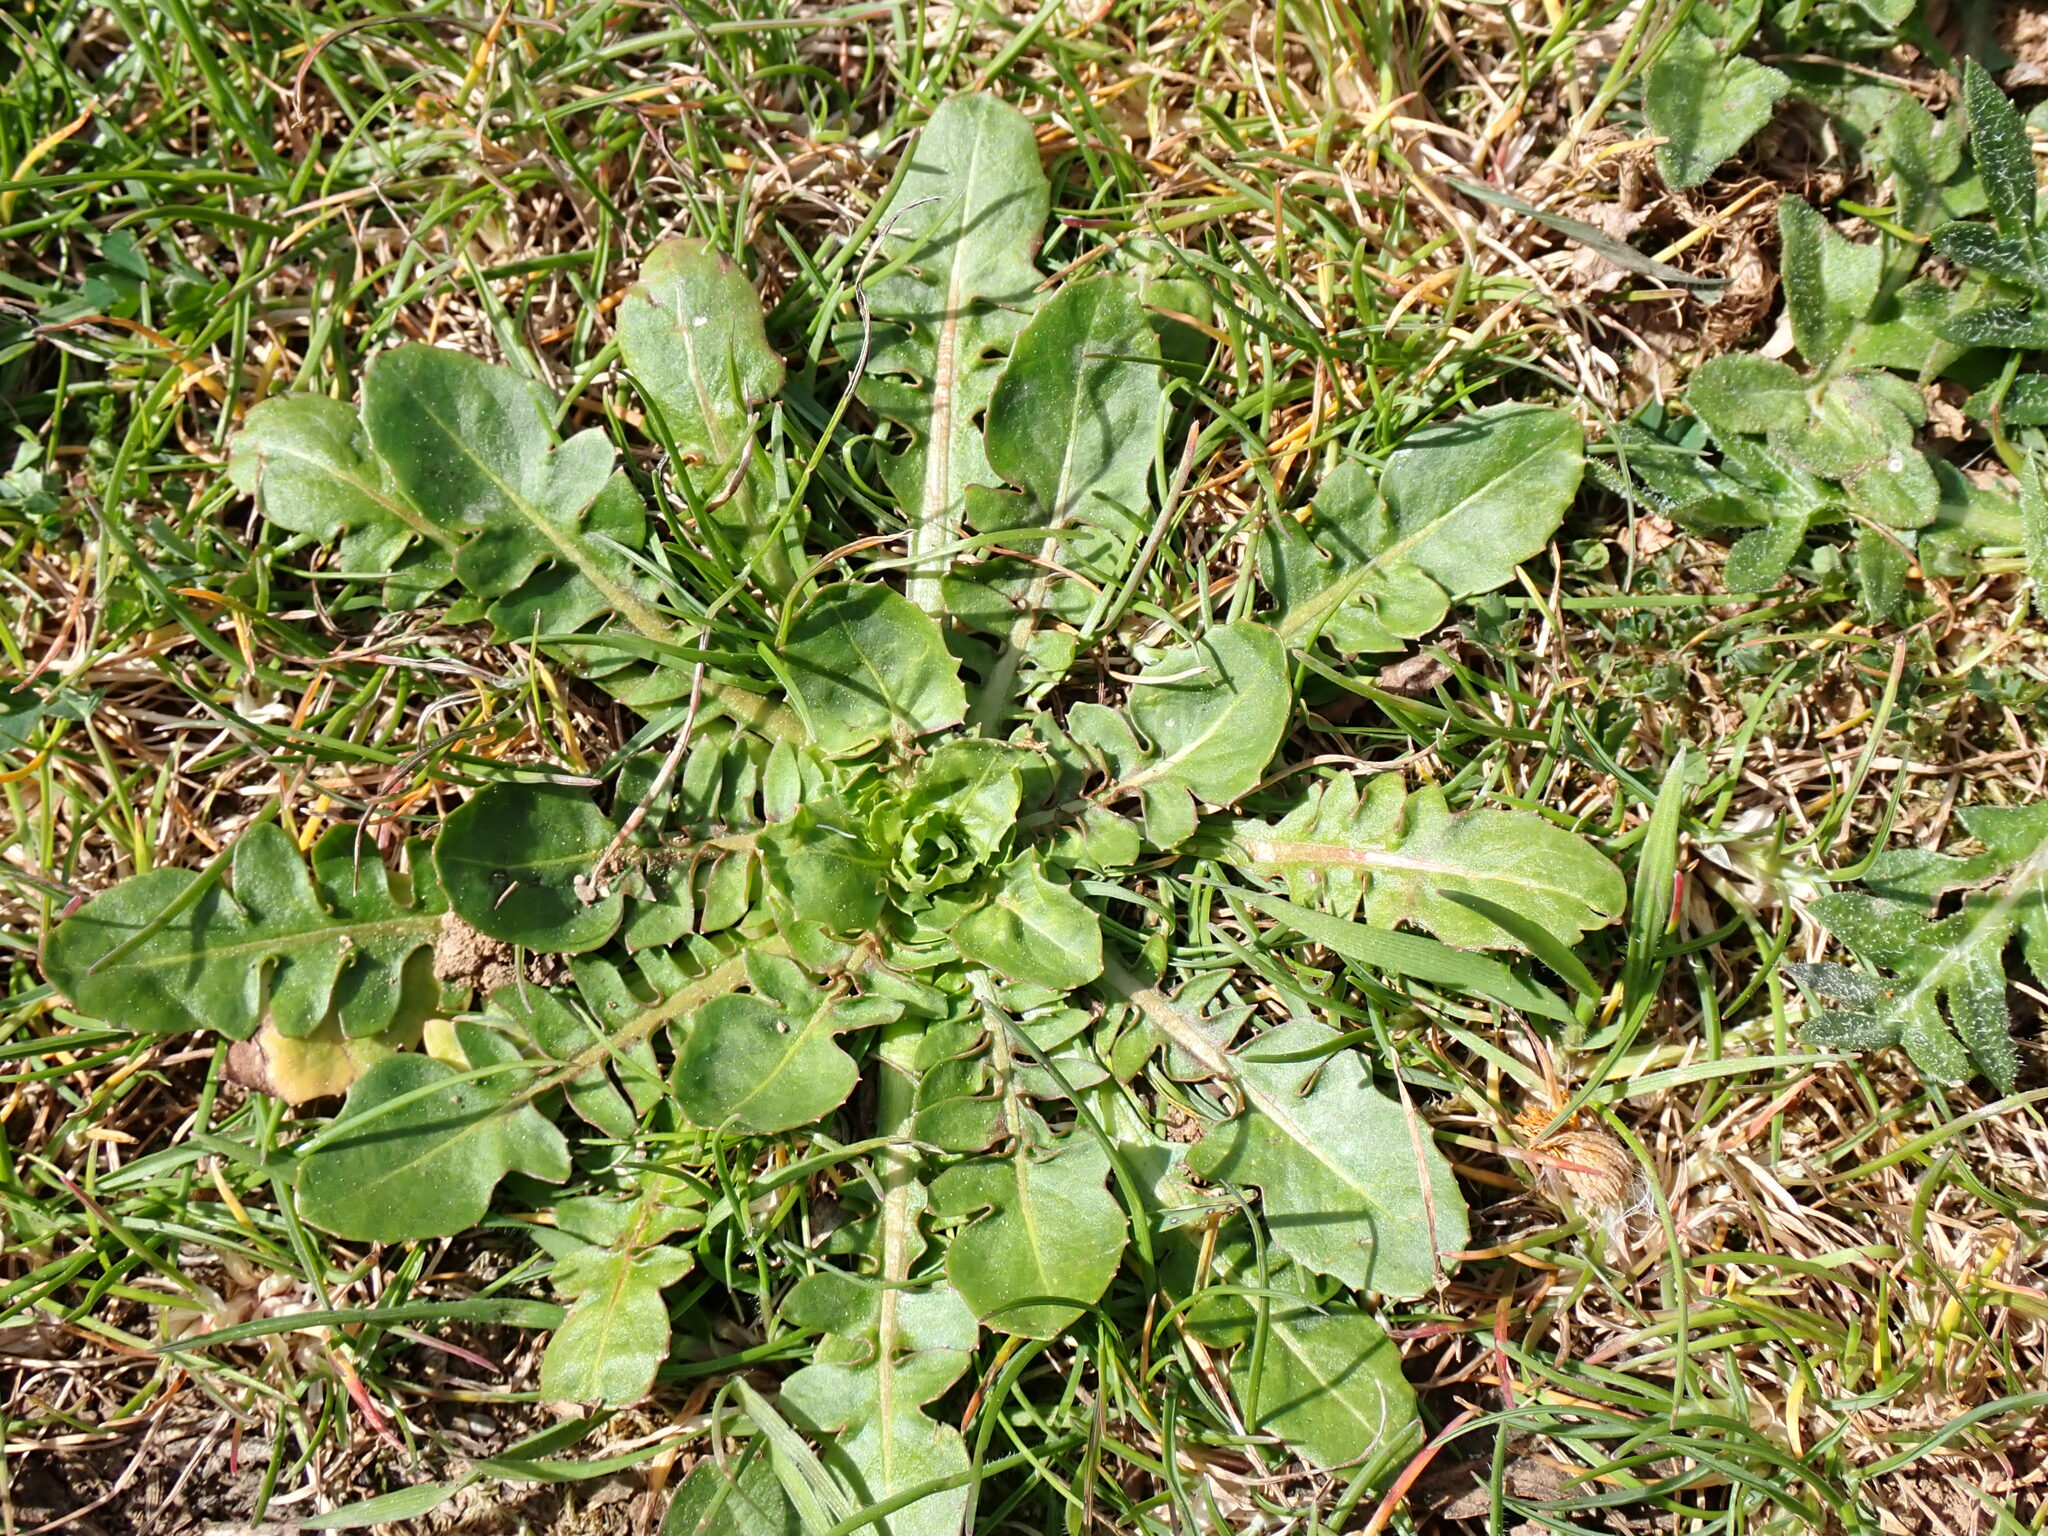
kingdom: Plantae
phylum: Tracheophyta
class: Magnoliopsida
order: Asterales
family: Asteraceae
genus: Crepis
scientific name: Crepis bursifolia
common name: Italian hawksbeard
